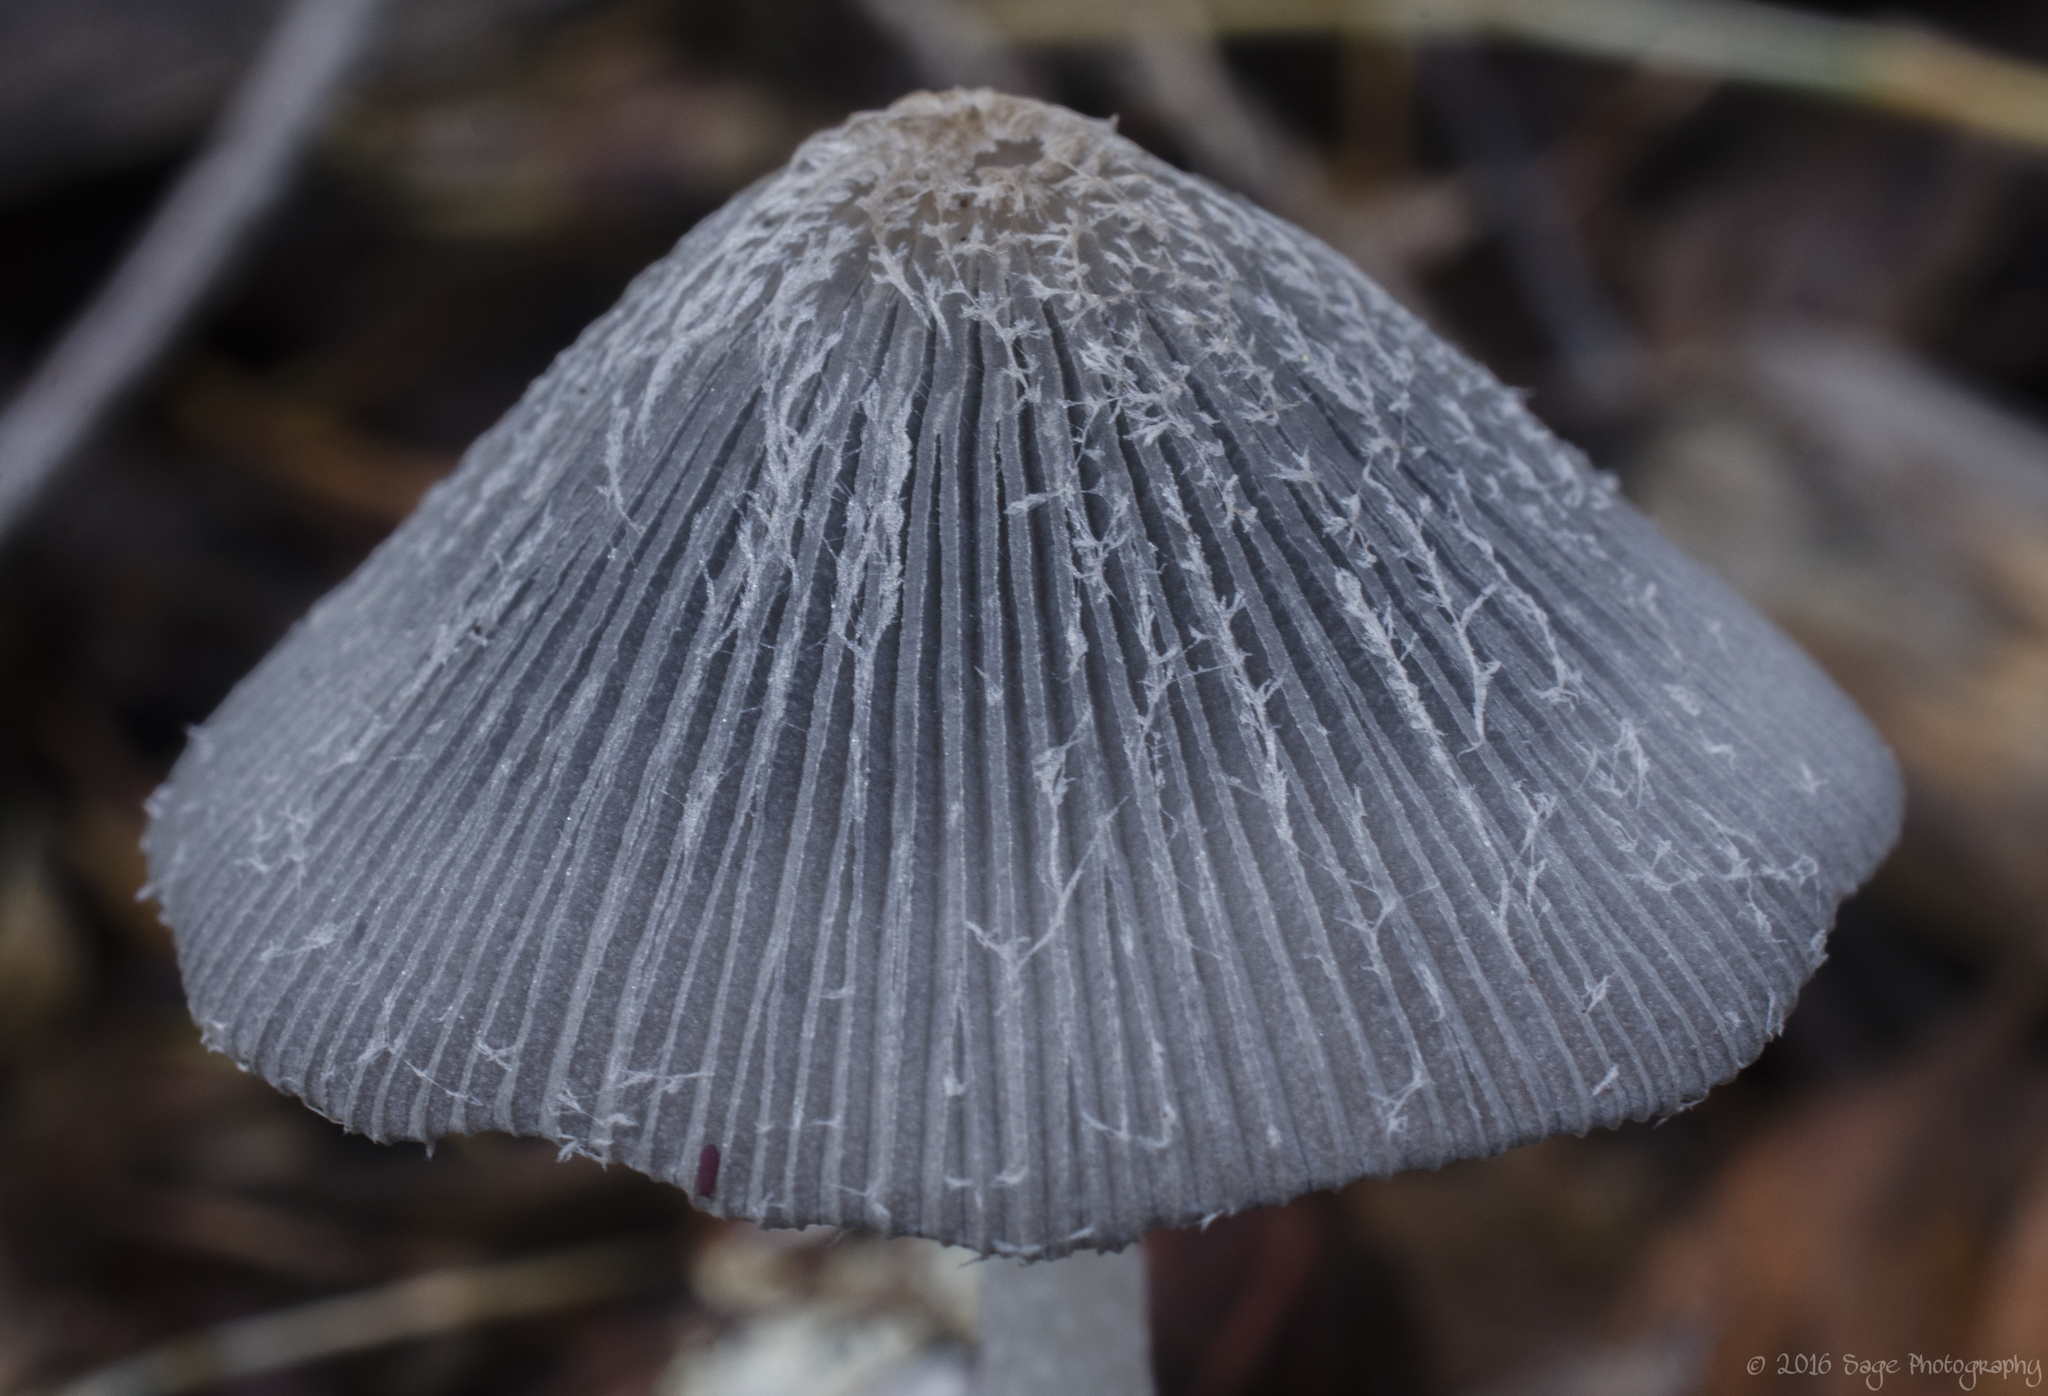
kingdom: Fungi
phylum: Basidiomycota
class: Agaricomycetes
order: Agaricales
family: Psathyrellaceae
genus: Coprinopsis
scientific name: Coprinopsis lagopus
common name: Hare'sfoot inkcap
